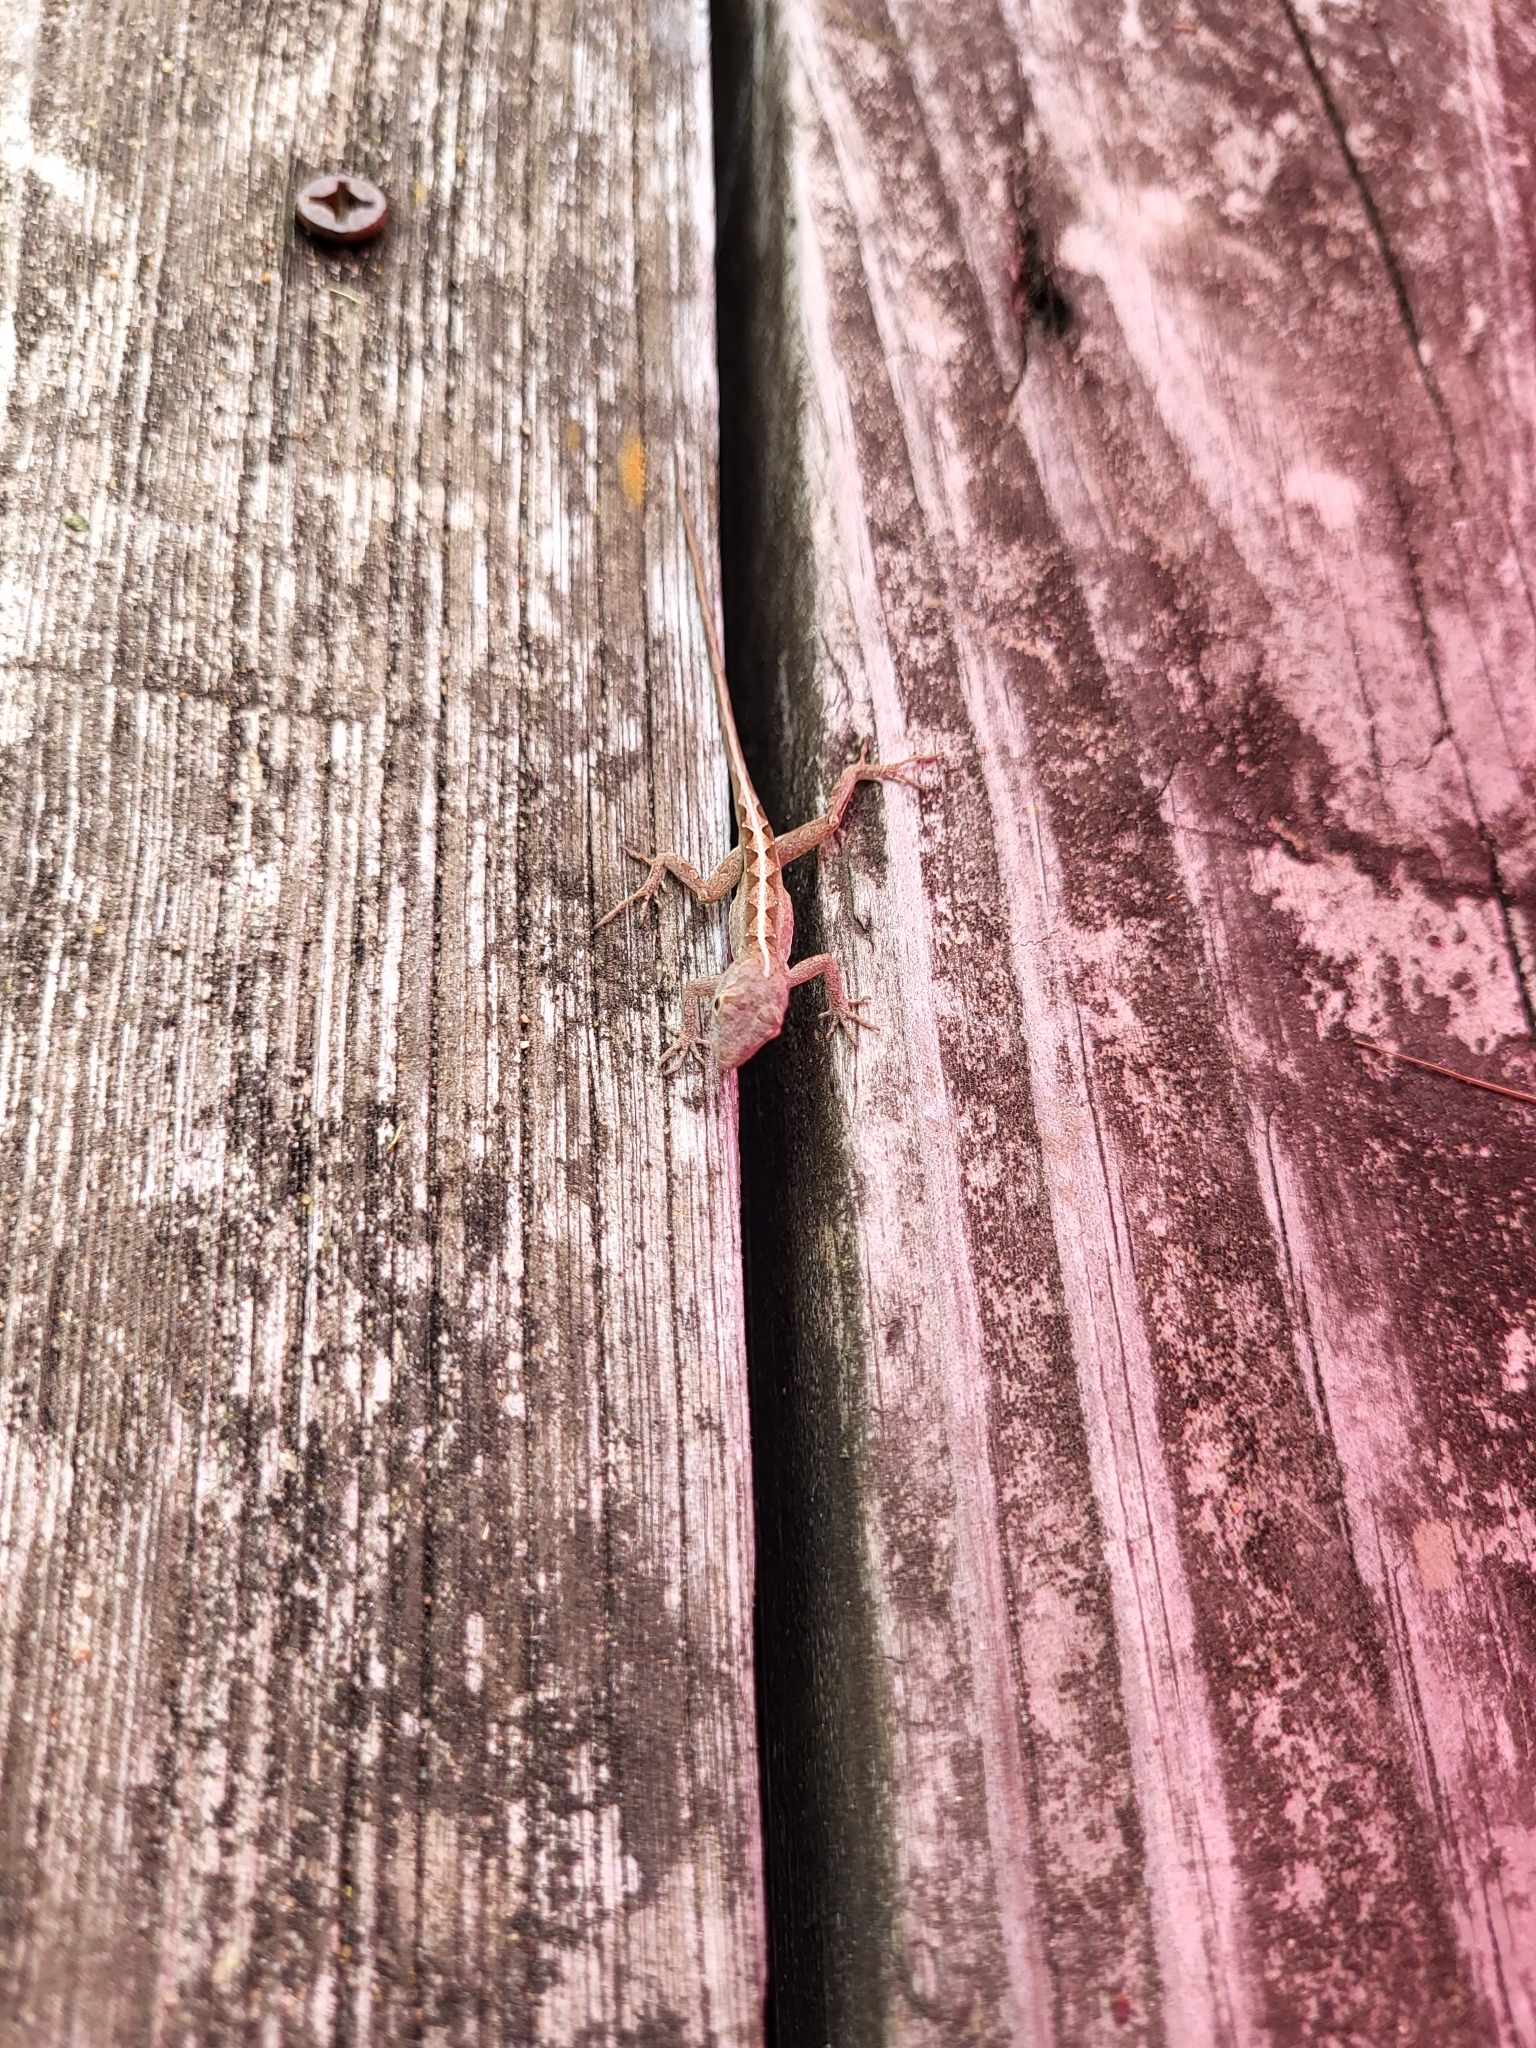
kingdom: Animalia
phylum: Chordata
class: Squamata
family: Dactyloidae
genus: Anolis
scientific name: Anolis sagrei
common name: Brown anole
